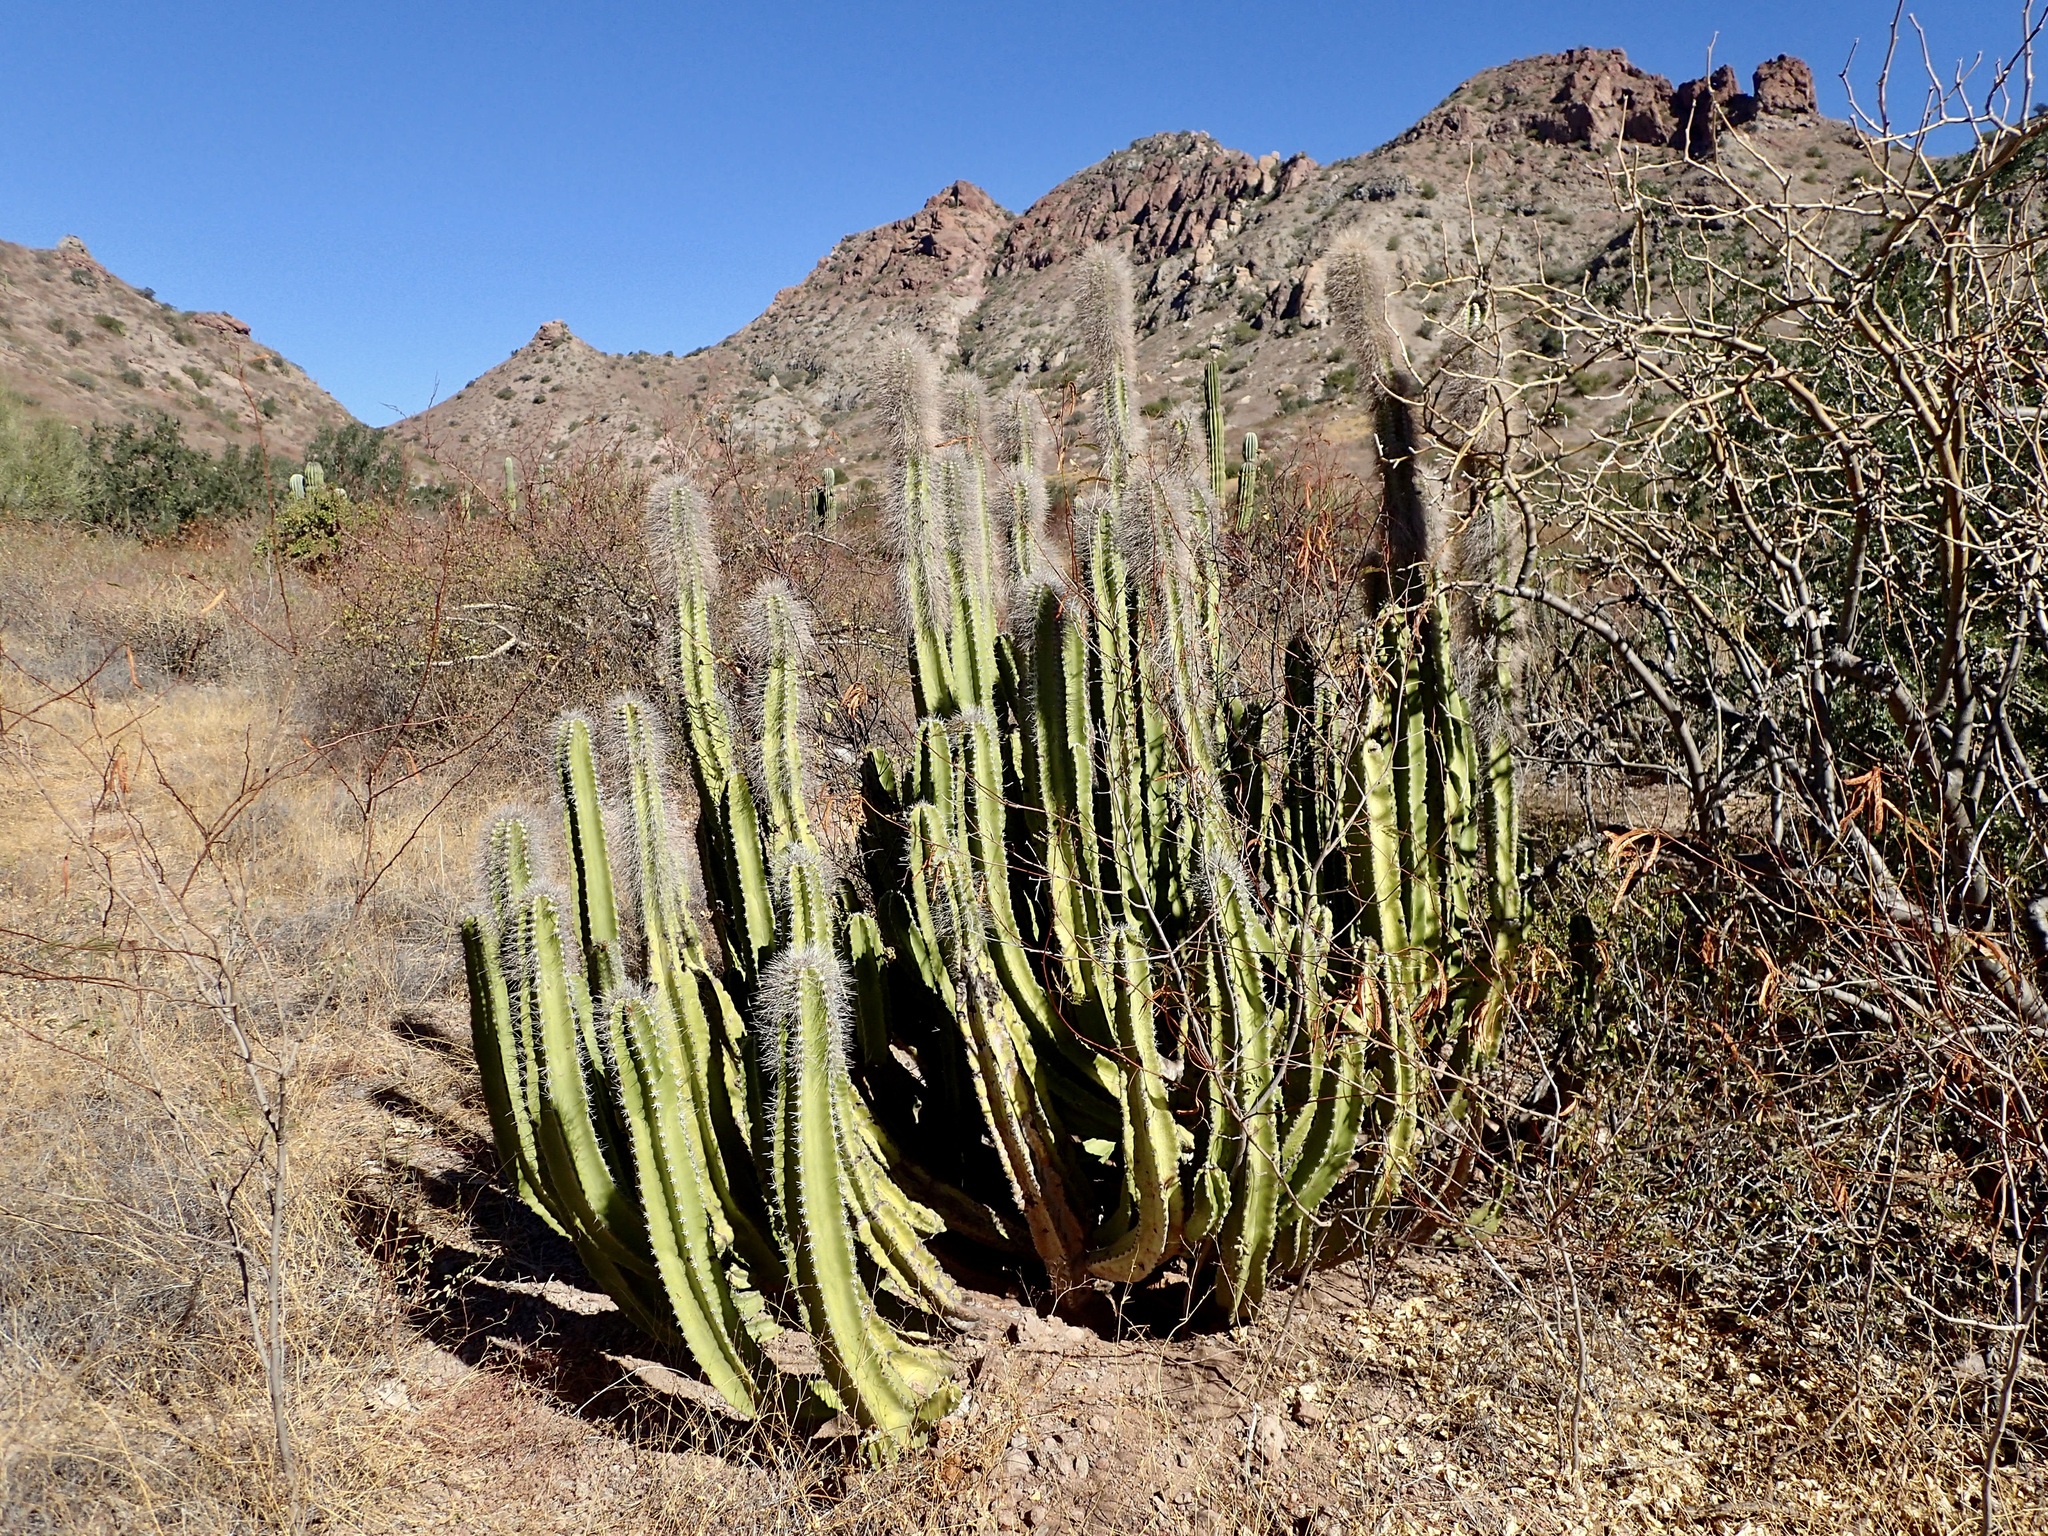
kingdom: Plantae
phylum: Tracheophyta
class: Magnoliopsida
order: Caryophyllales
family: Cactaceae
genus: Pachycereus
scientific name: Pachycereus schottii
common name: Senita cactus
